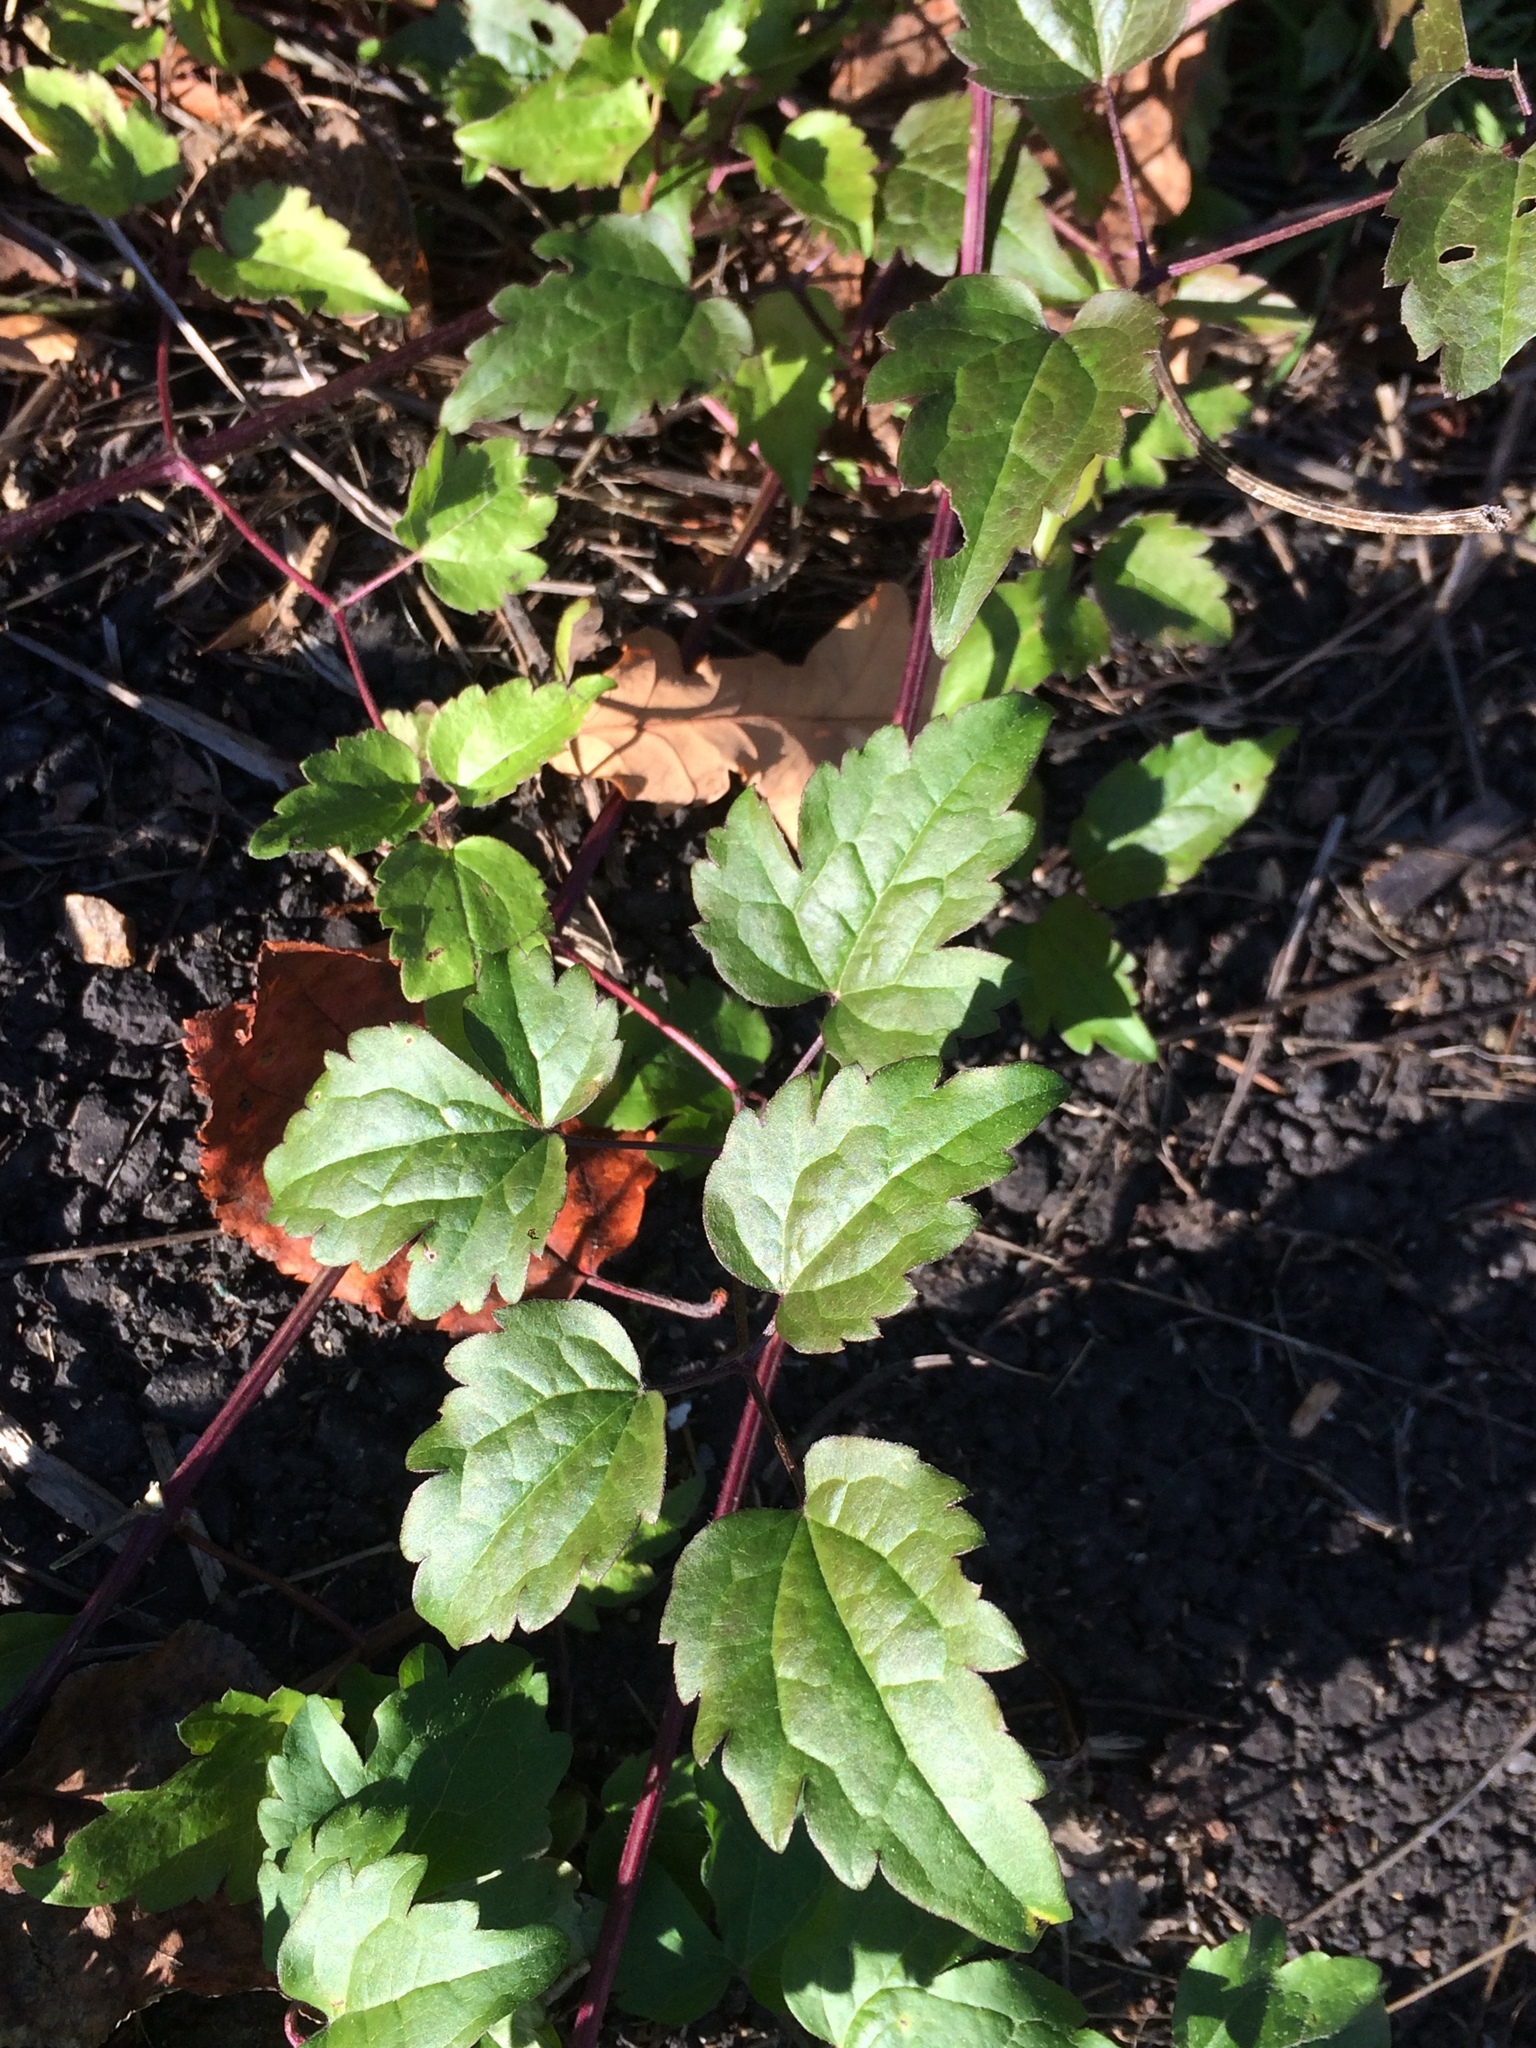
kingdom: Plantae
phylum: Tracheophyta
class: Magnoliopsida
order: Ranunculales
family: Ranunculaceae
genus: Clematis
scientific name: Clematis vitalba
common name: Evergreen clematis
